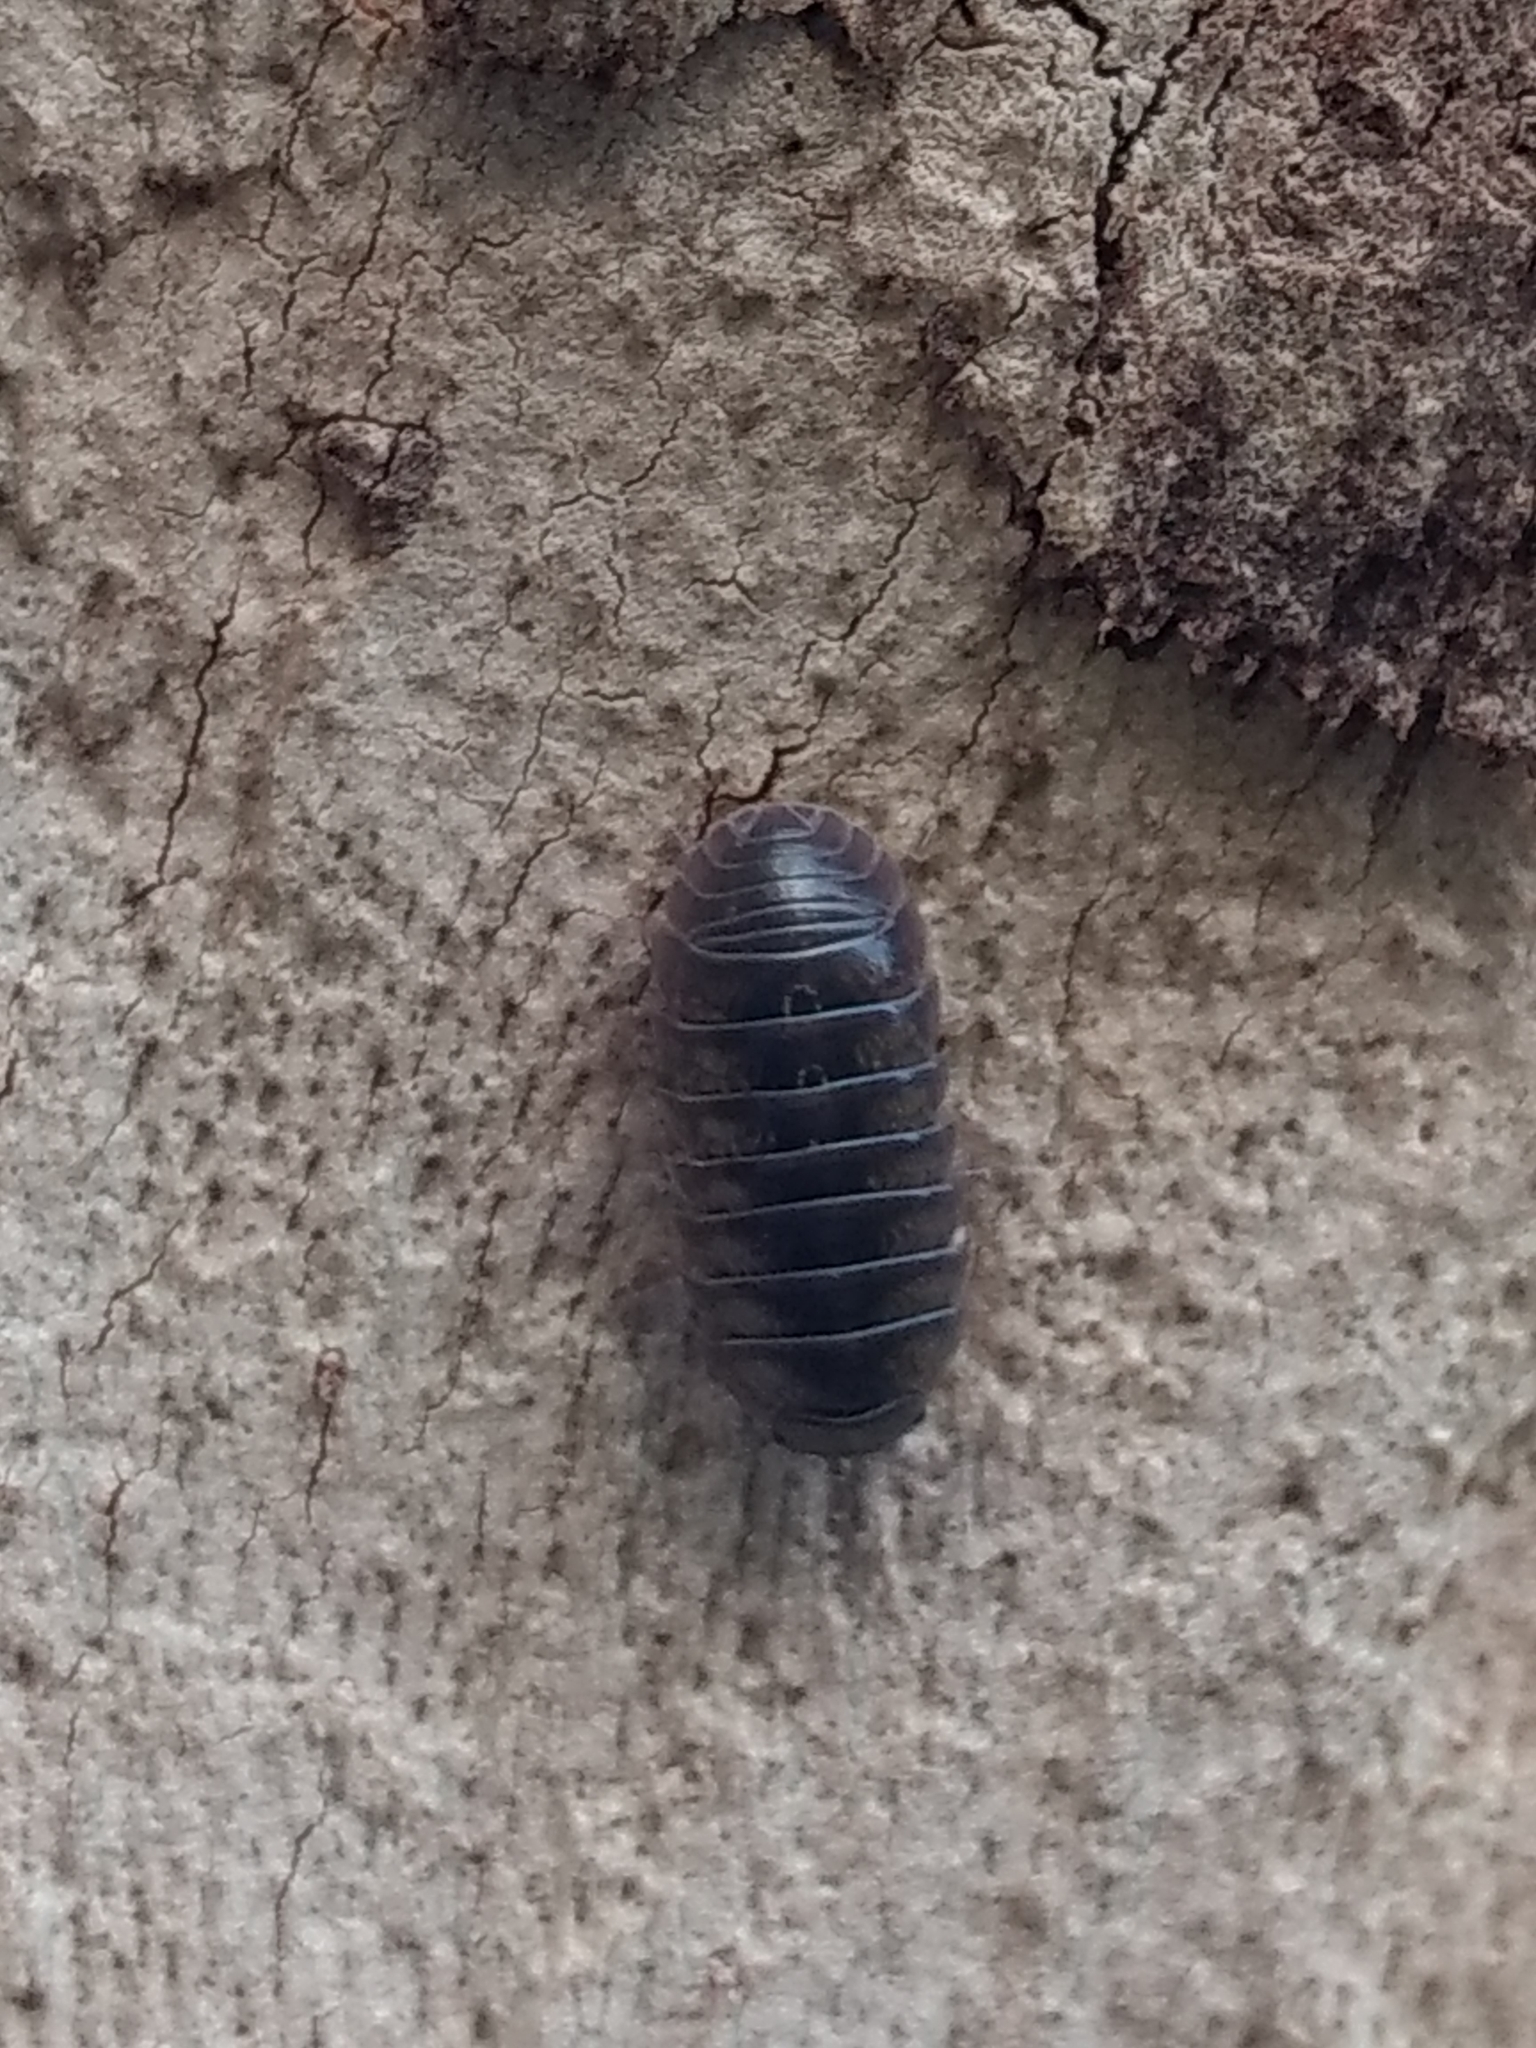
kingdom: Animalia
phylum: Arthropoda
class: Malacostraca
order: Isopoda
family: Armadillidiidae
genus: Armadillidium
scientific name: Armadillidium vulgare
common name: Common pill woodlouse
